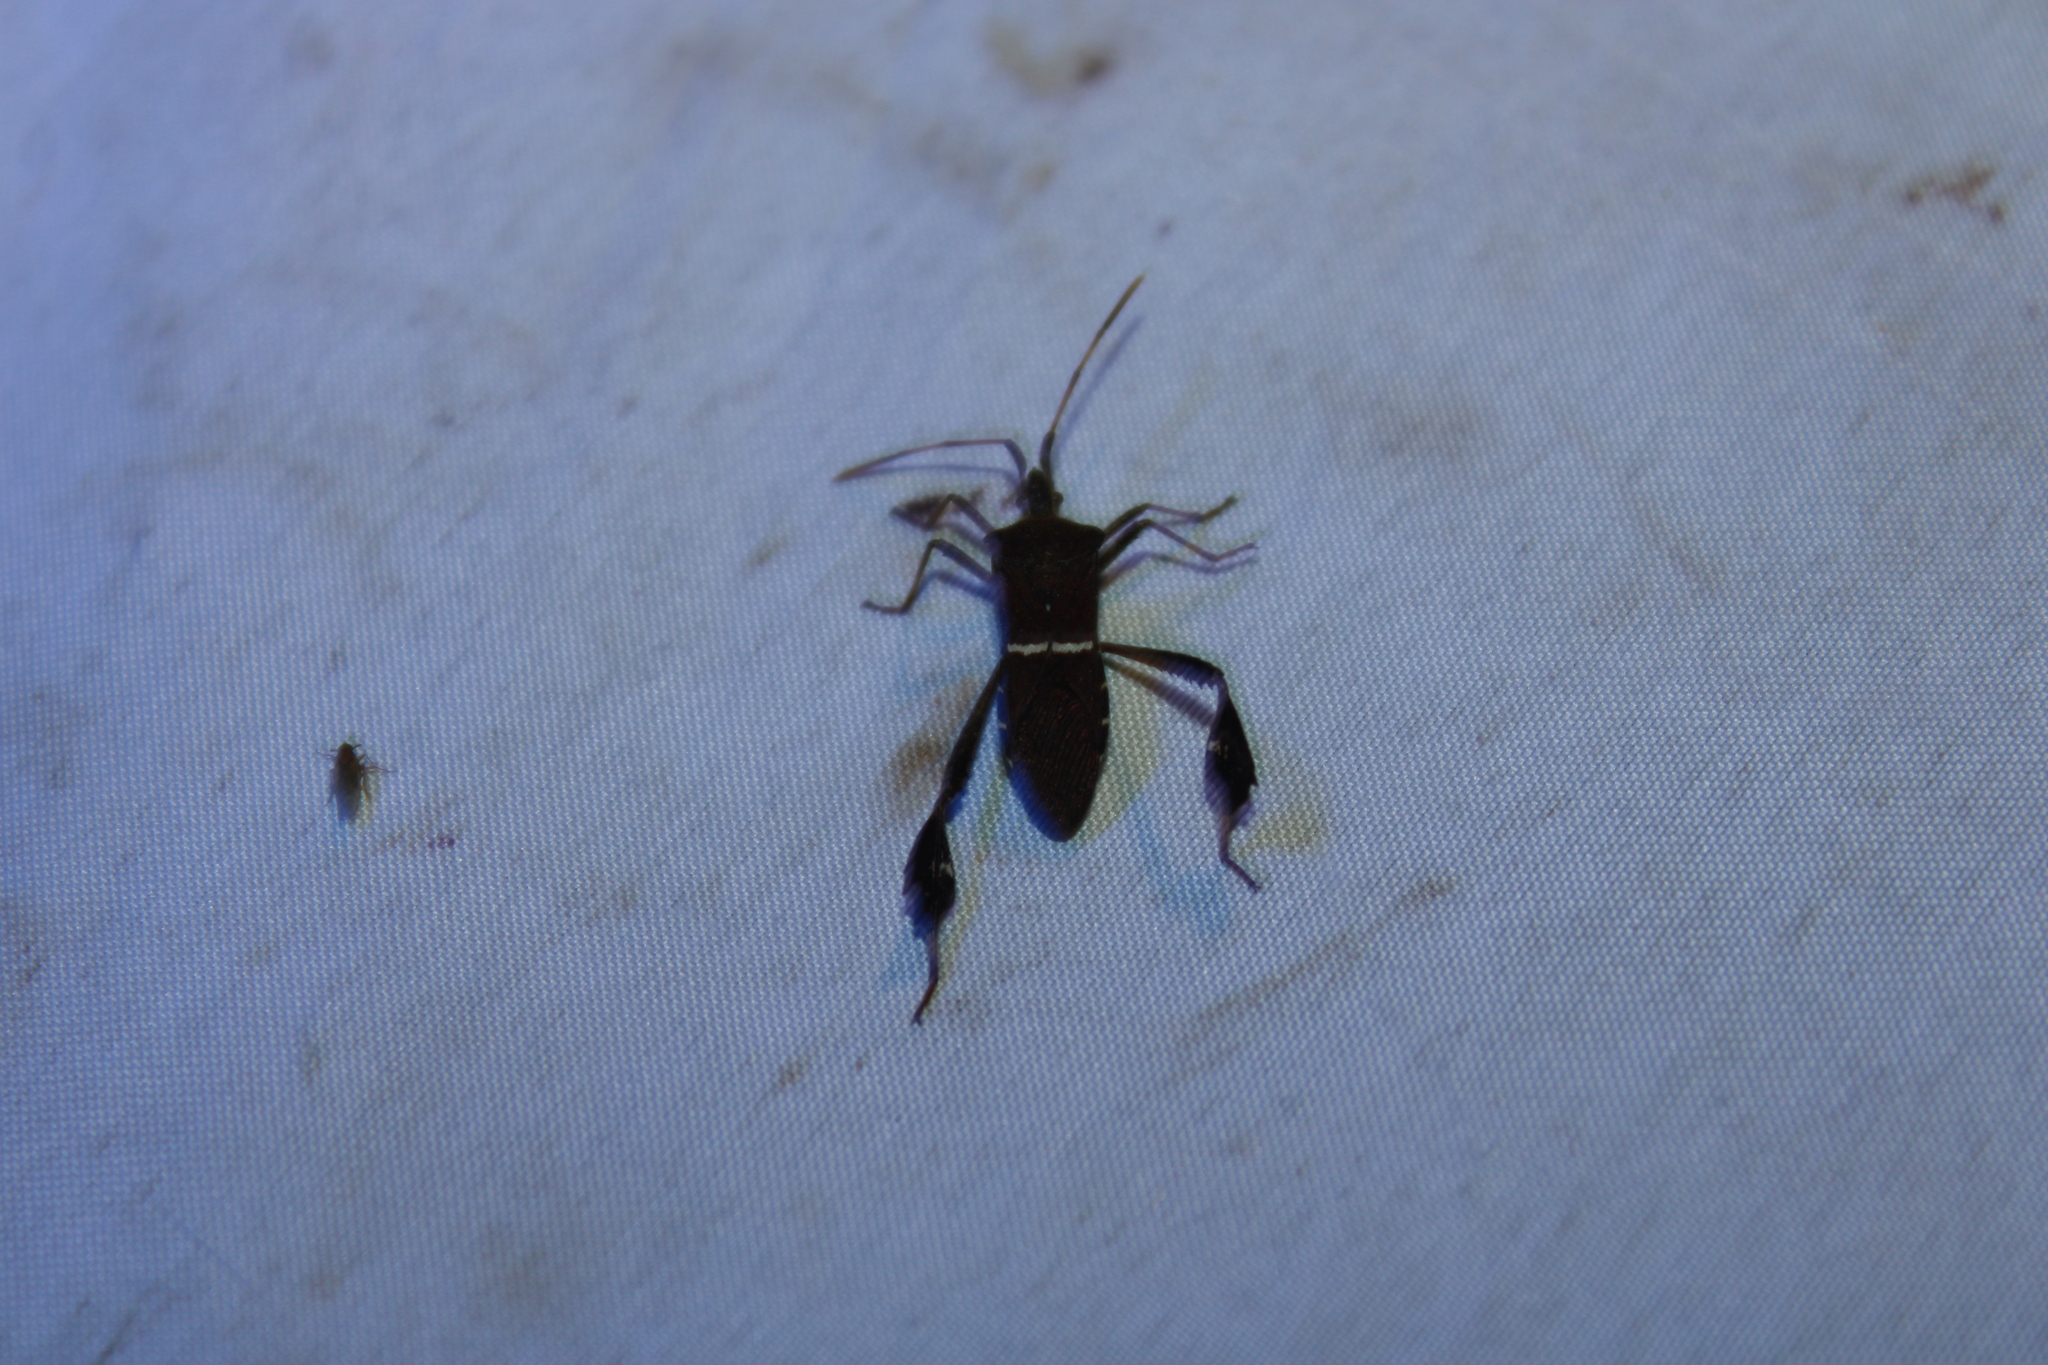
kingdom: Animalia
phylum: Arthropoda
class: Insecta
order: Hemiptera
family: Coreidae
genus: Leptoglossus
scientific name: Leptoglossus phyllopus
